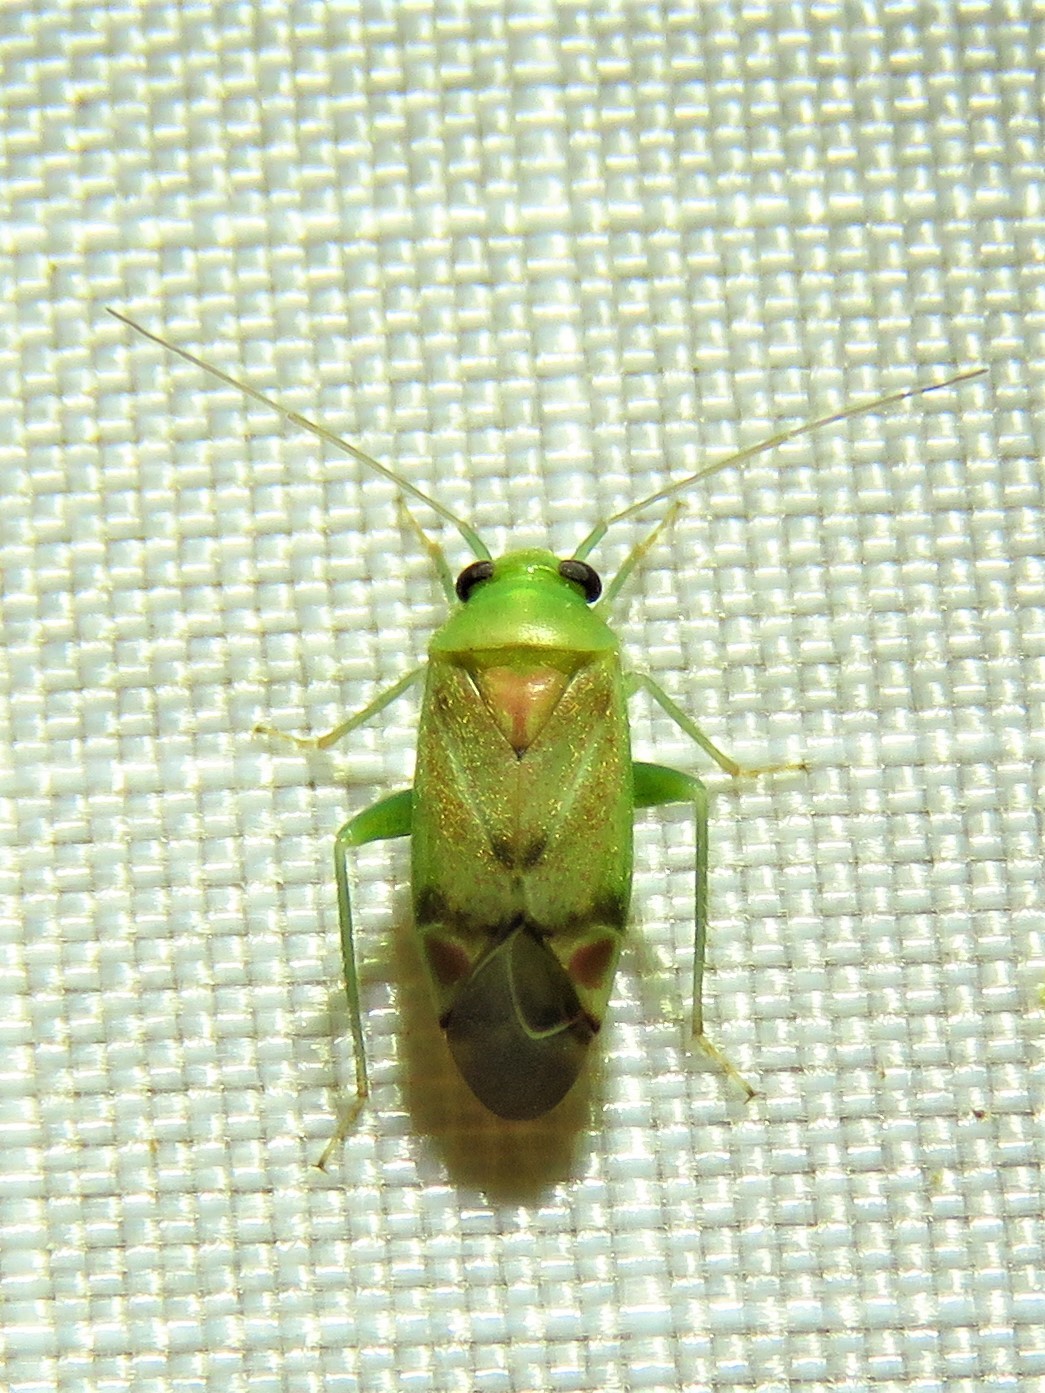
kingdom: Animalia
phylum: Arthropoda
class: Insecta
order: Hemiptera
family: Miridae
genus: Dichrooscytus
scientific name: Dichrooscytus
